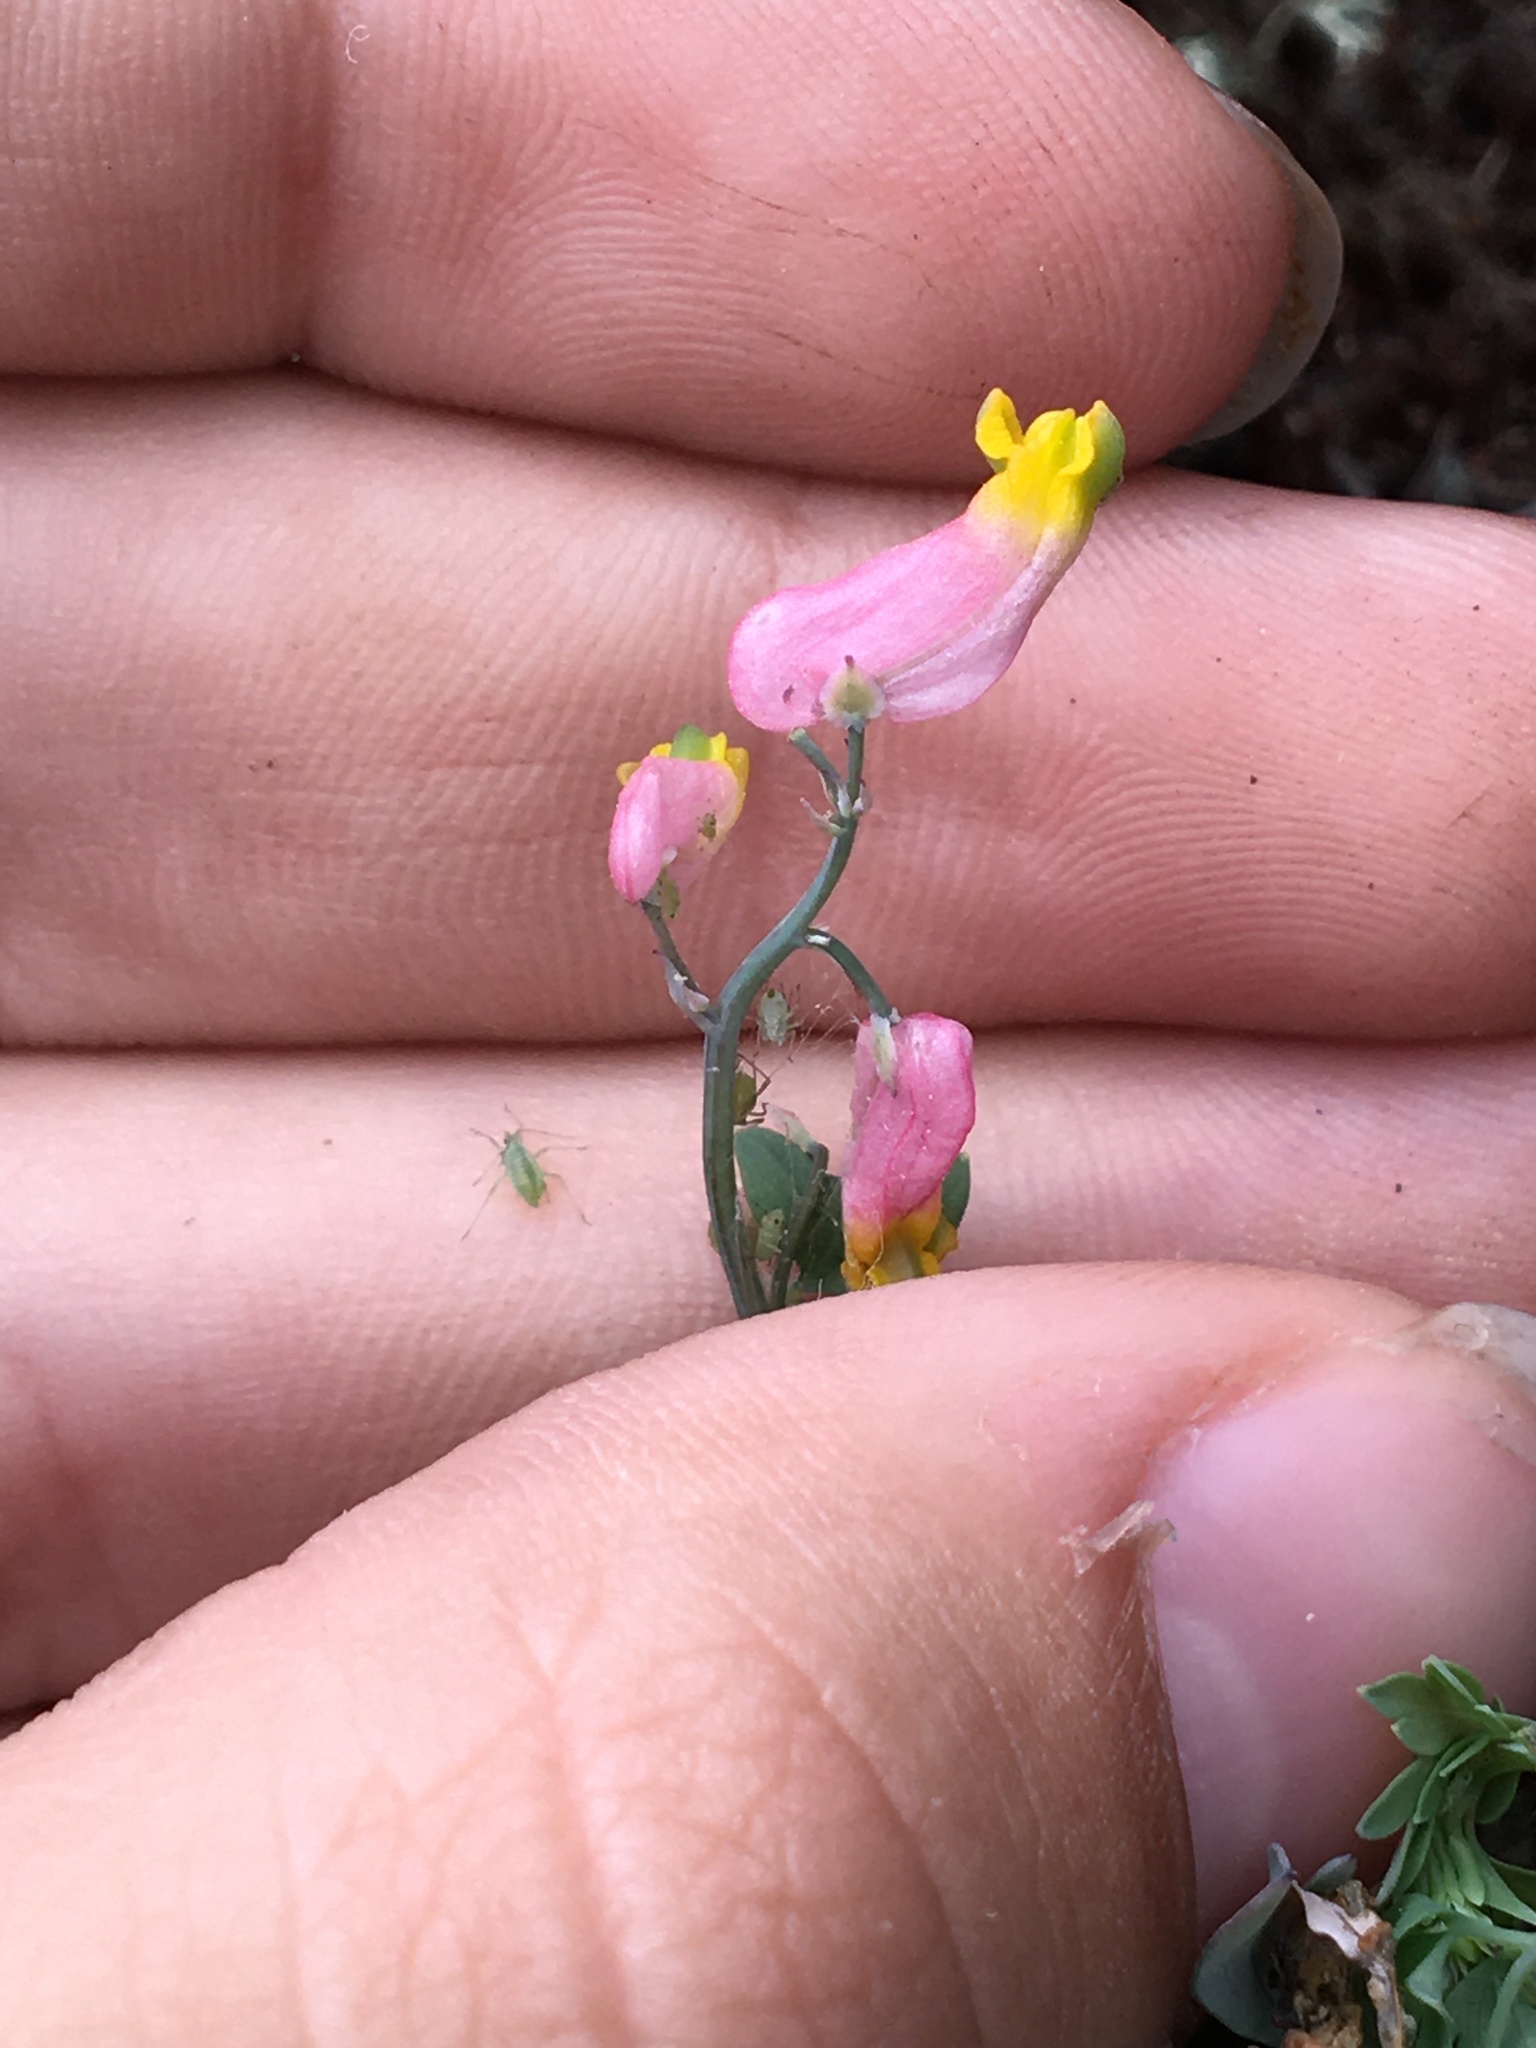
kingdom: Plantae
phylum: Tracheophyta
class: Magnoliopsida
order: Ranunculales
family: Papaveraceae
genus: Capnoides
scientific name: Capnoides sempervirens
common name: Rock harlequin
